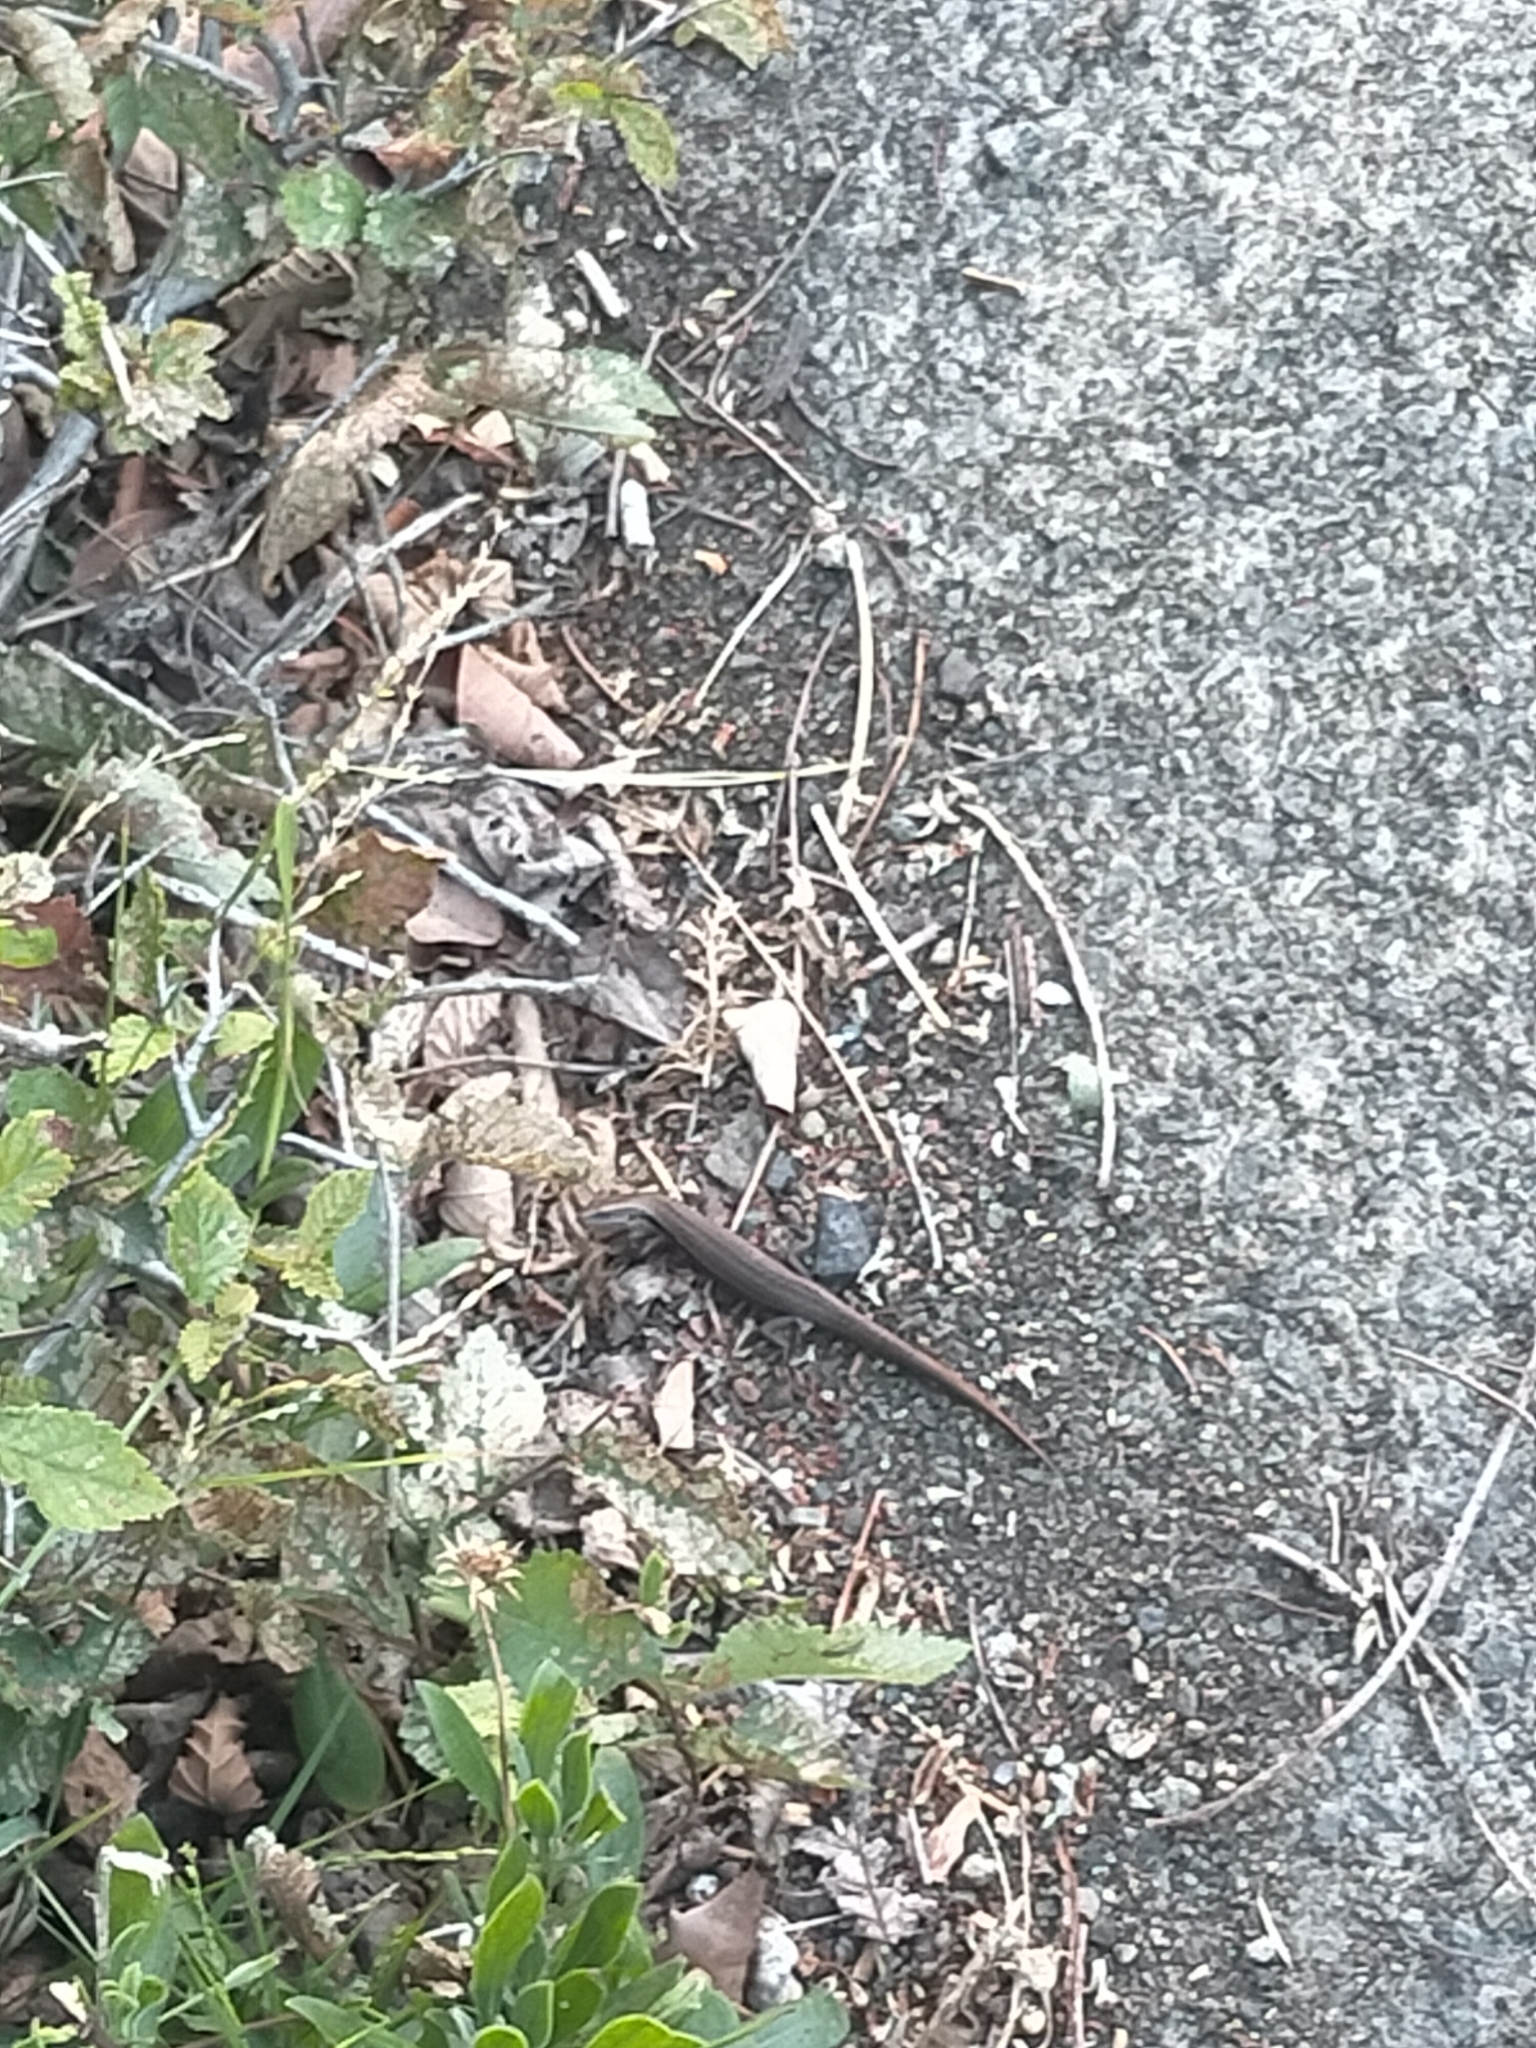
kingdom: Animalia
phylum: Chordata
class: Squamata
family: Scincidae
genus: Carinascincus
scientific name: Carinascincus metallicus
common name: Metallic cool-skink
